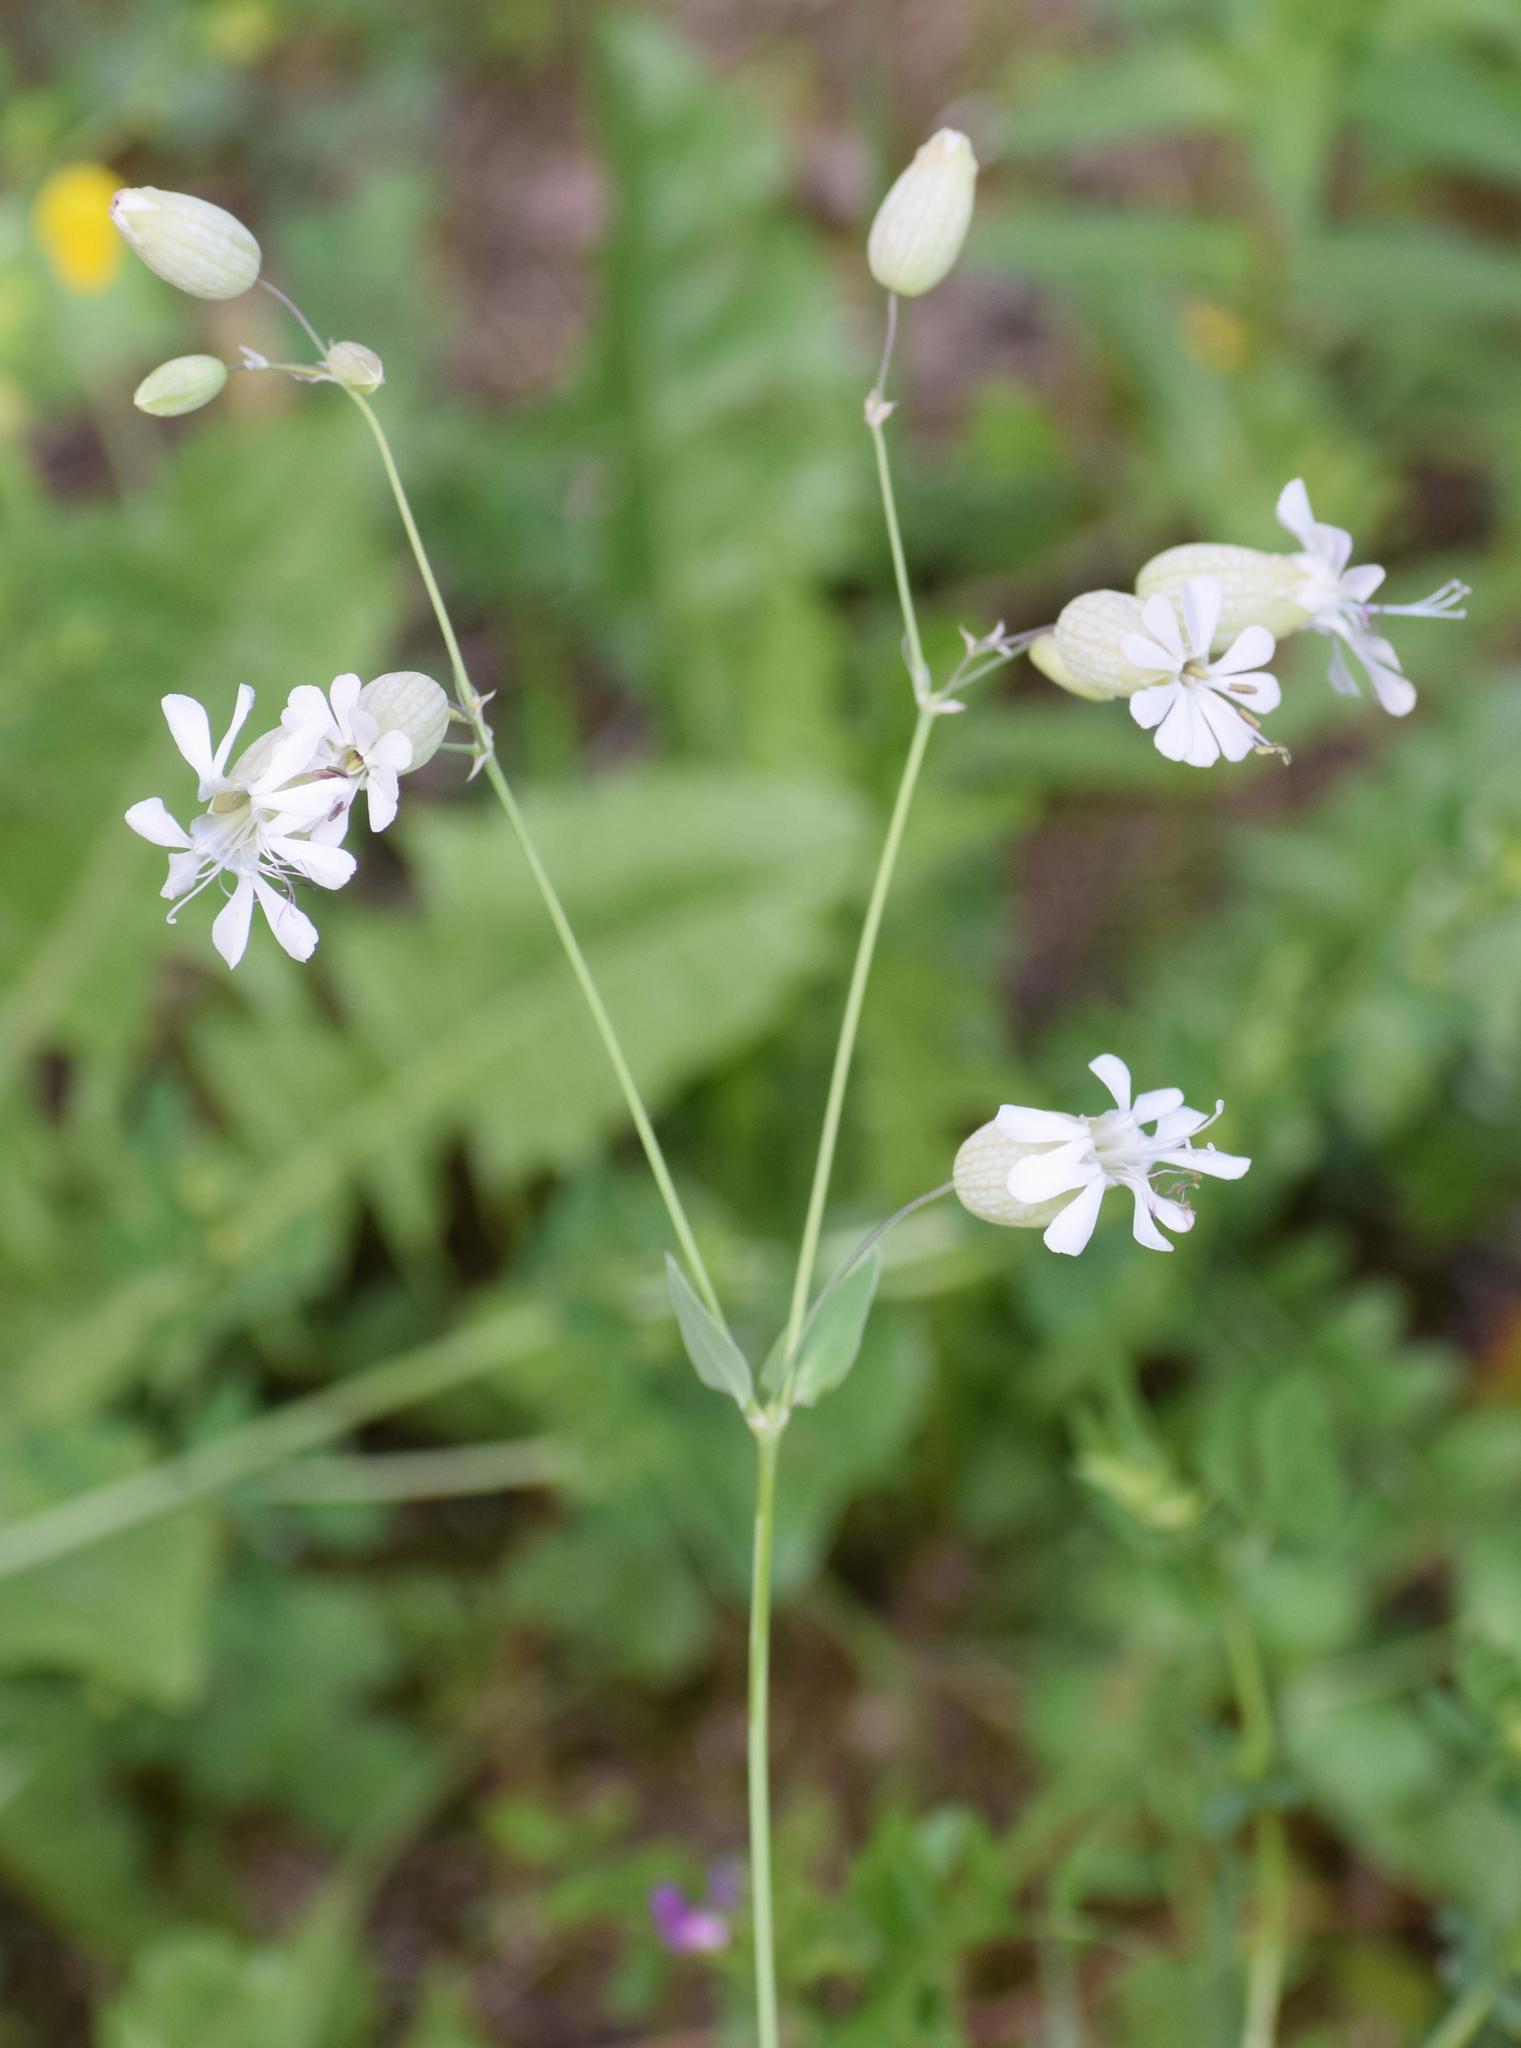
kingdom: Plantae
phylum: Tracheophyta
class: Magnoliopsida
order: Caryophyllales
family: Caryophyllaceae
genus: Silene
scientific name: Silene vulgaris
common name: Bladder campion
